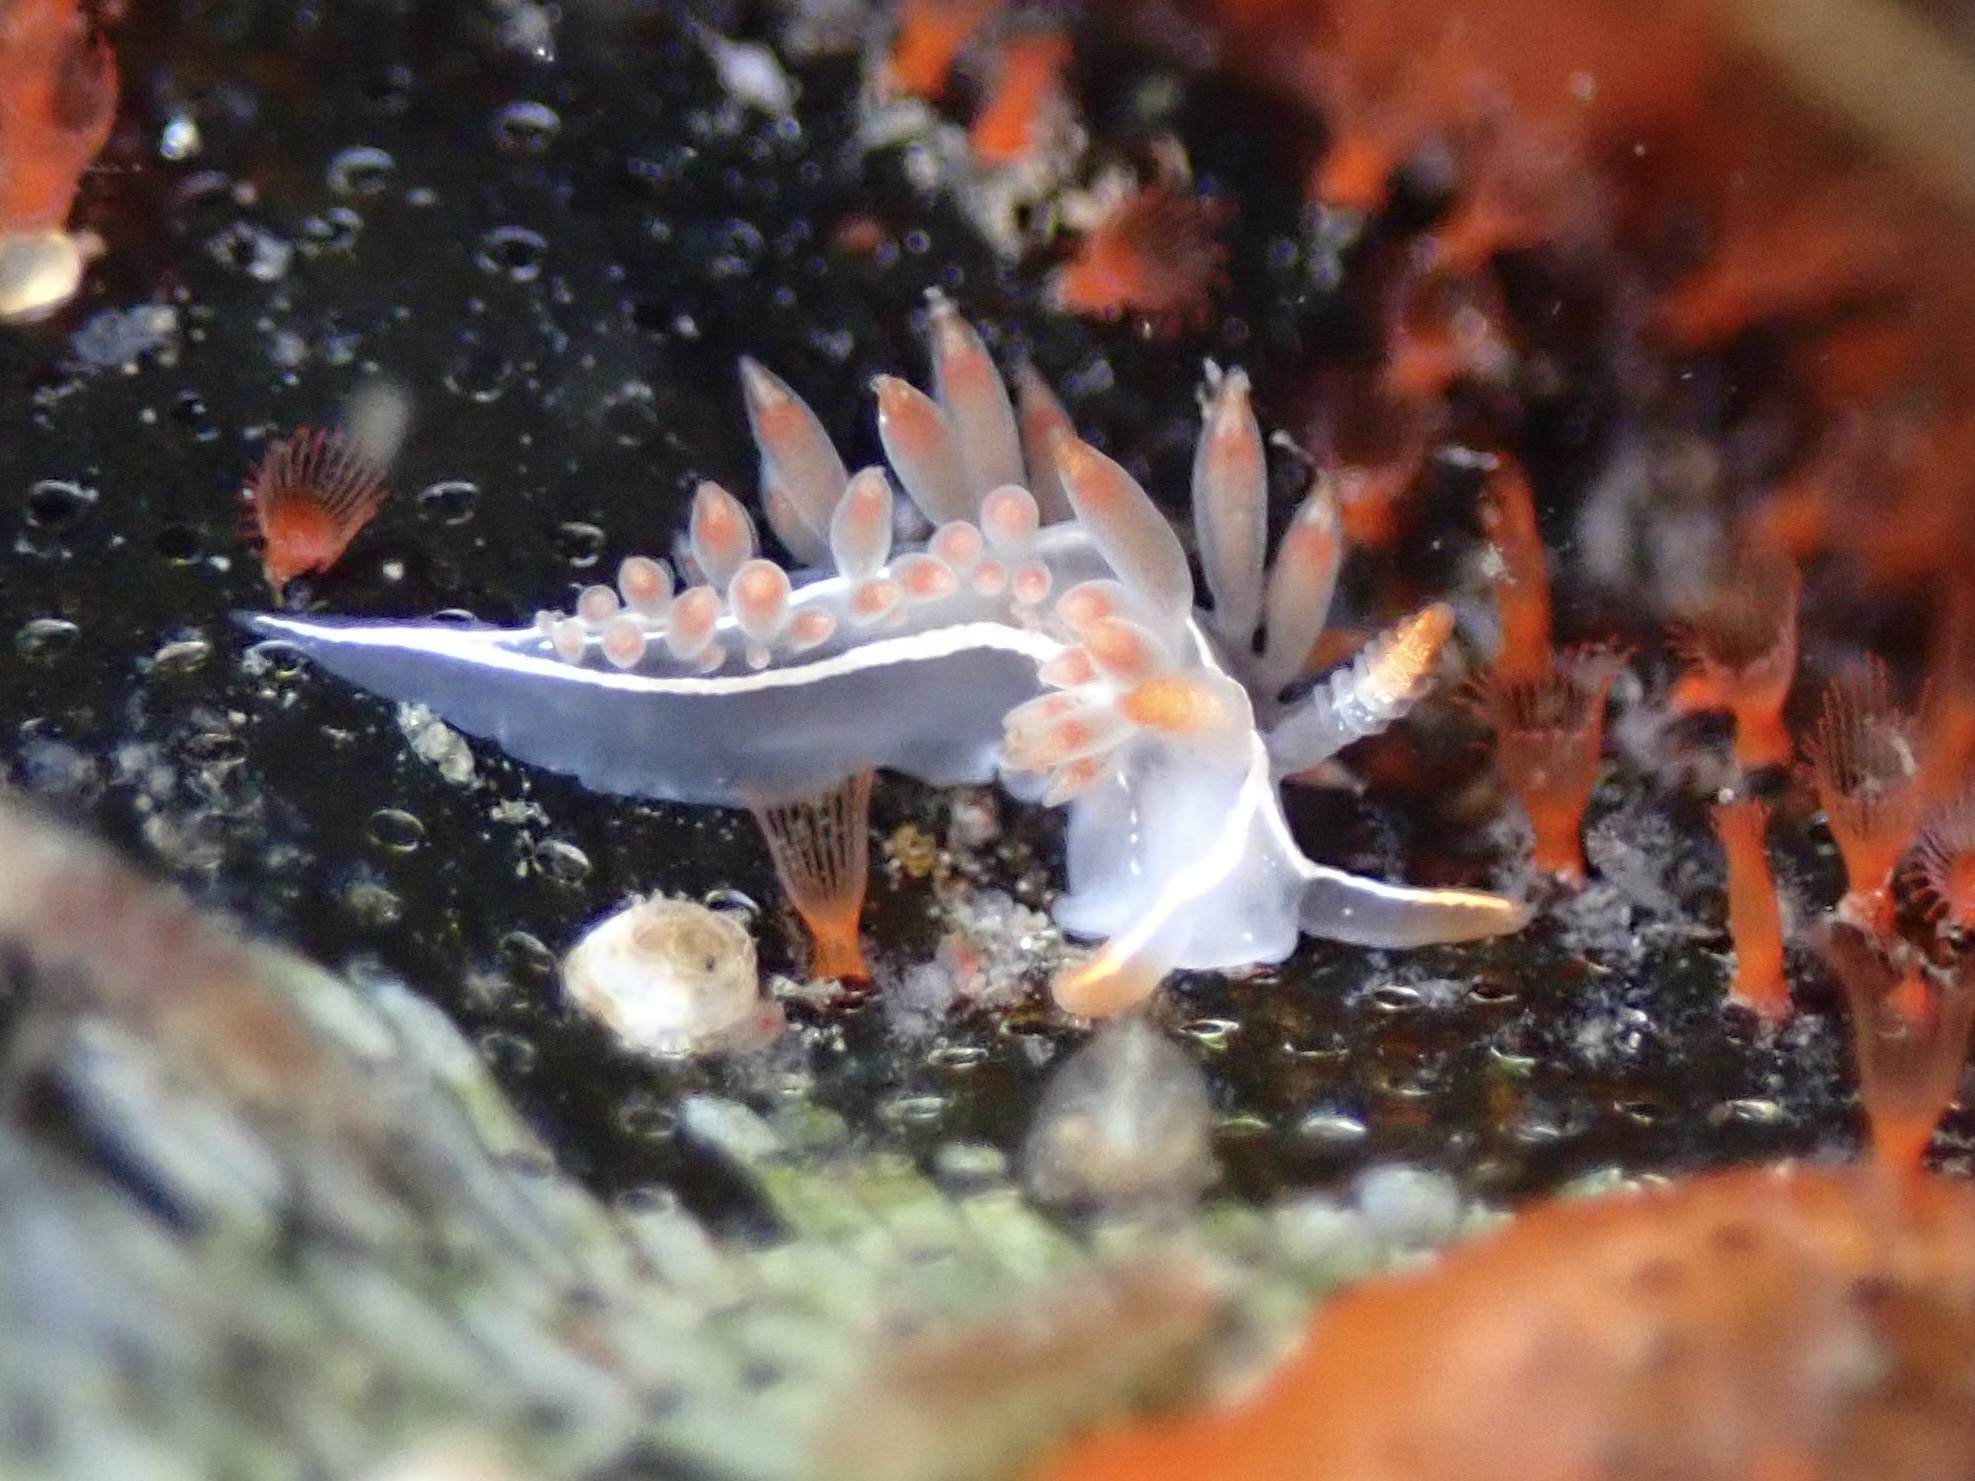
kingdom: Animalia
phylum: Mollusca
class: Gastropoda
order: Nudibranchia
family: Coryphellidae
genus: Coryphella
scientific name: Coryphella trilineata
